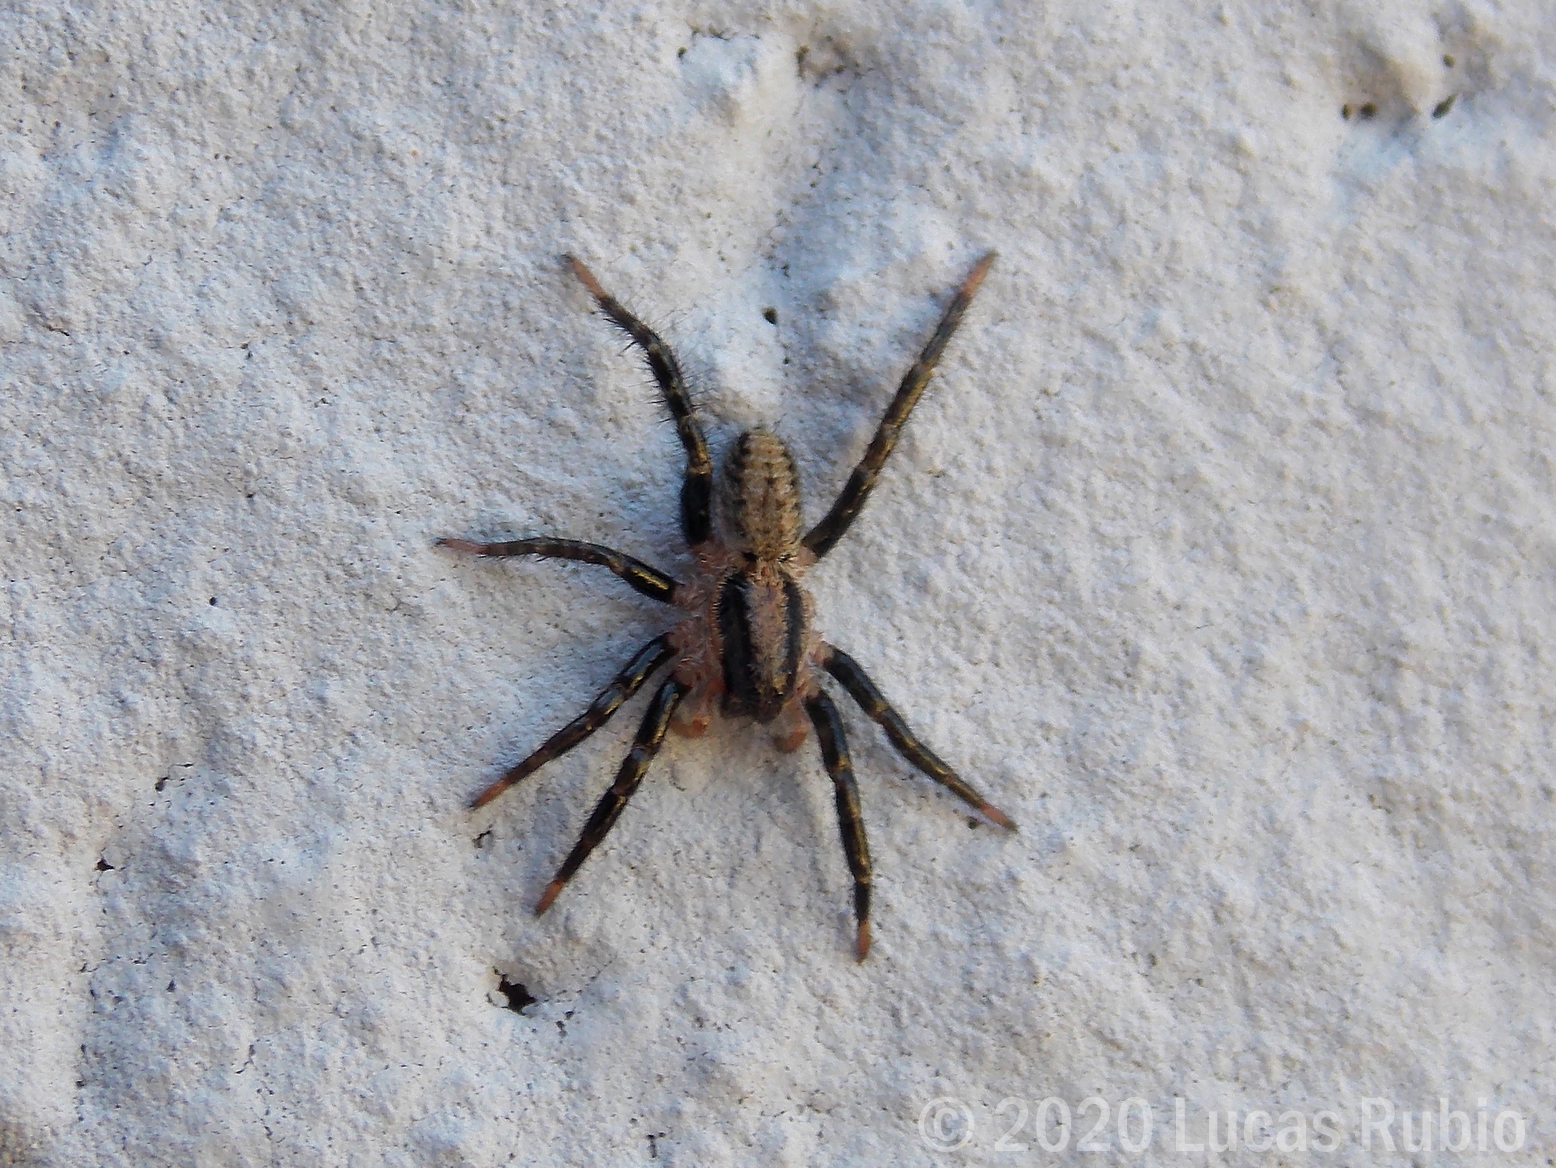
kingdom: Animalia
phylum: Arthropoda
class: Arachnida
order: Araneae
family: Lycosidae
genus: Birabenia
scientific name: Birabenia vittata
